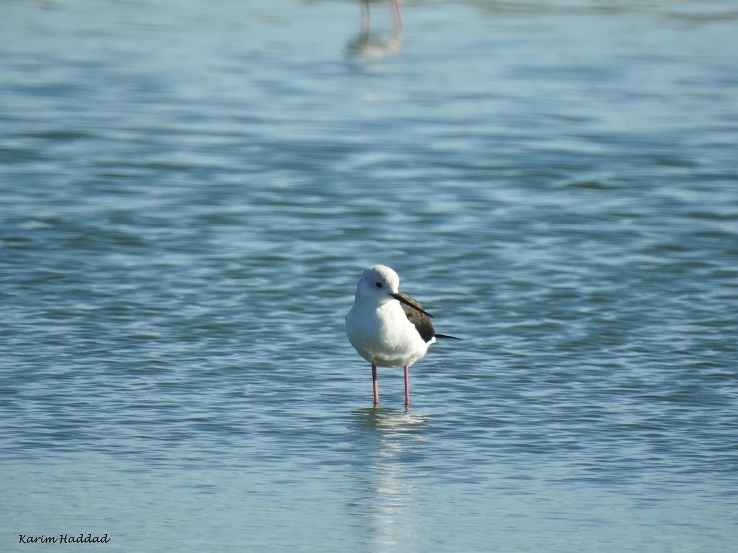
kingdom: Animalia
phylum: Chordata
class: Aves
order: Charadriiformes
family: Recurvirostridae
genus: Himantopus
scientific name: Himantopus himantopus
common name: Black-winged stilt
